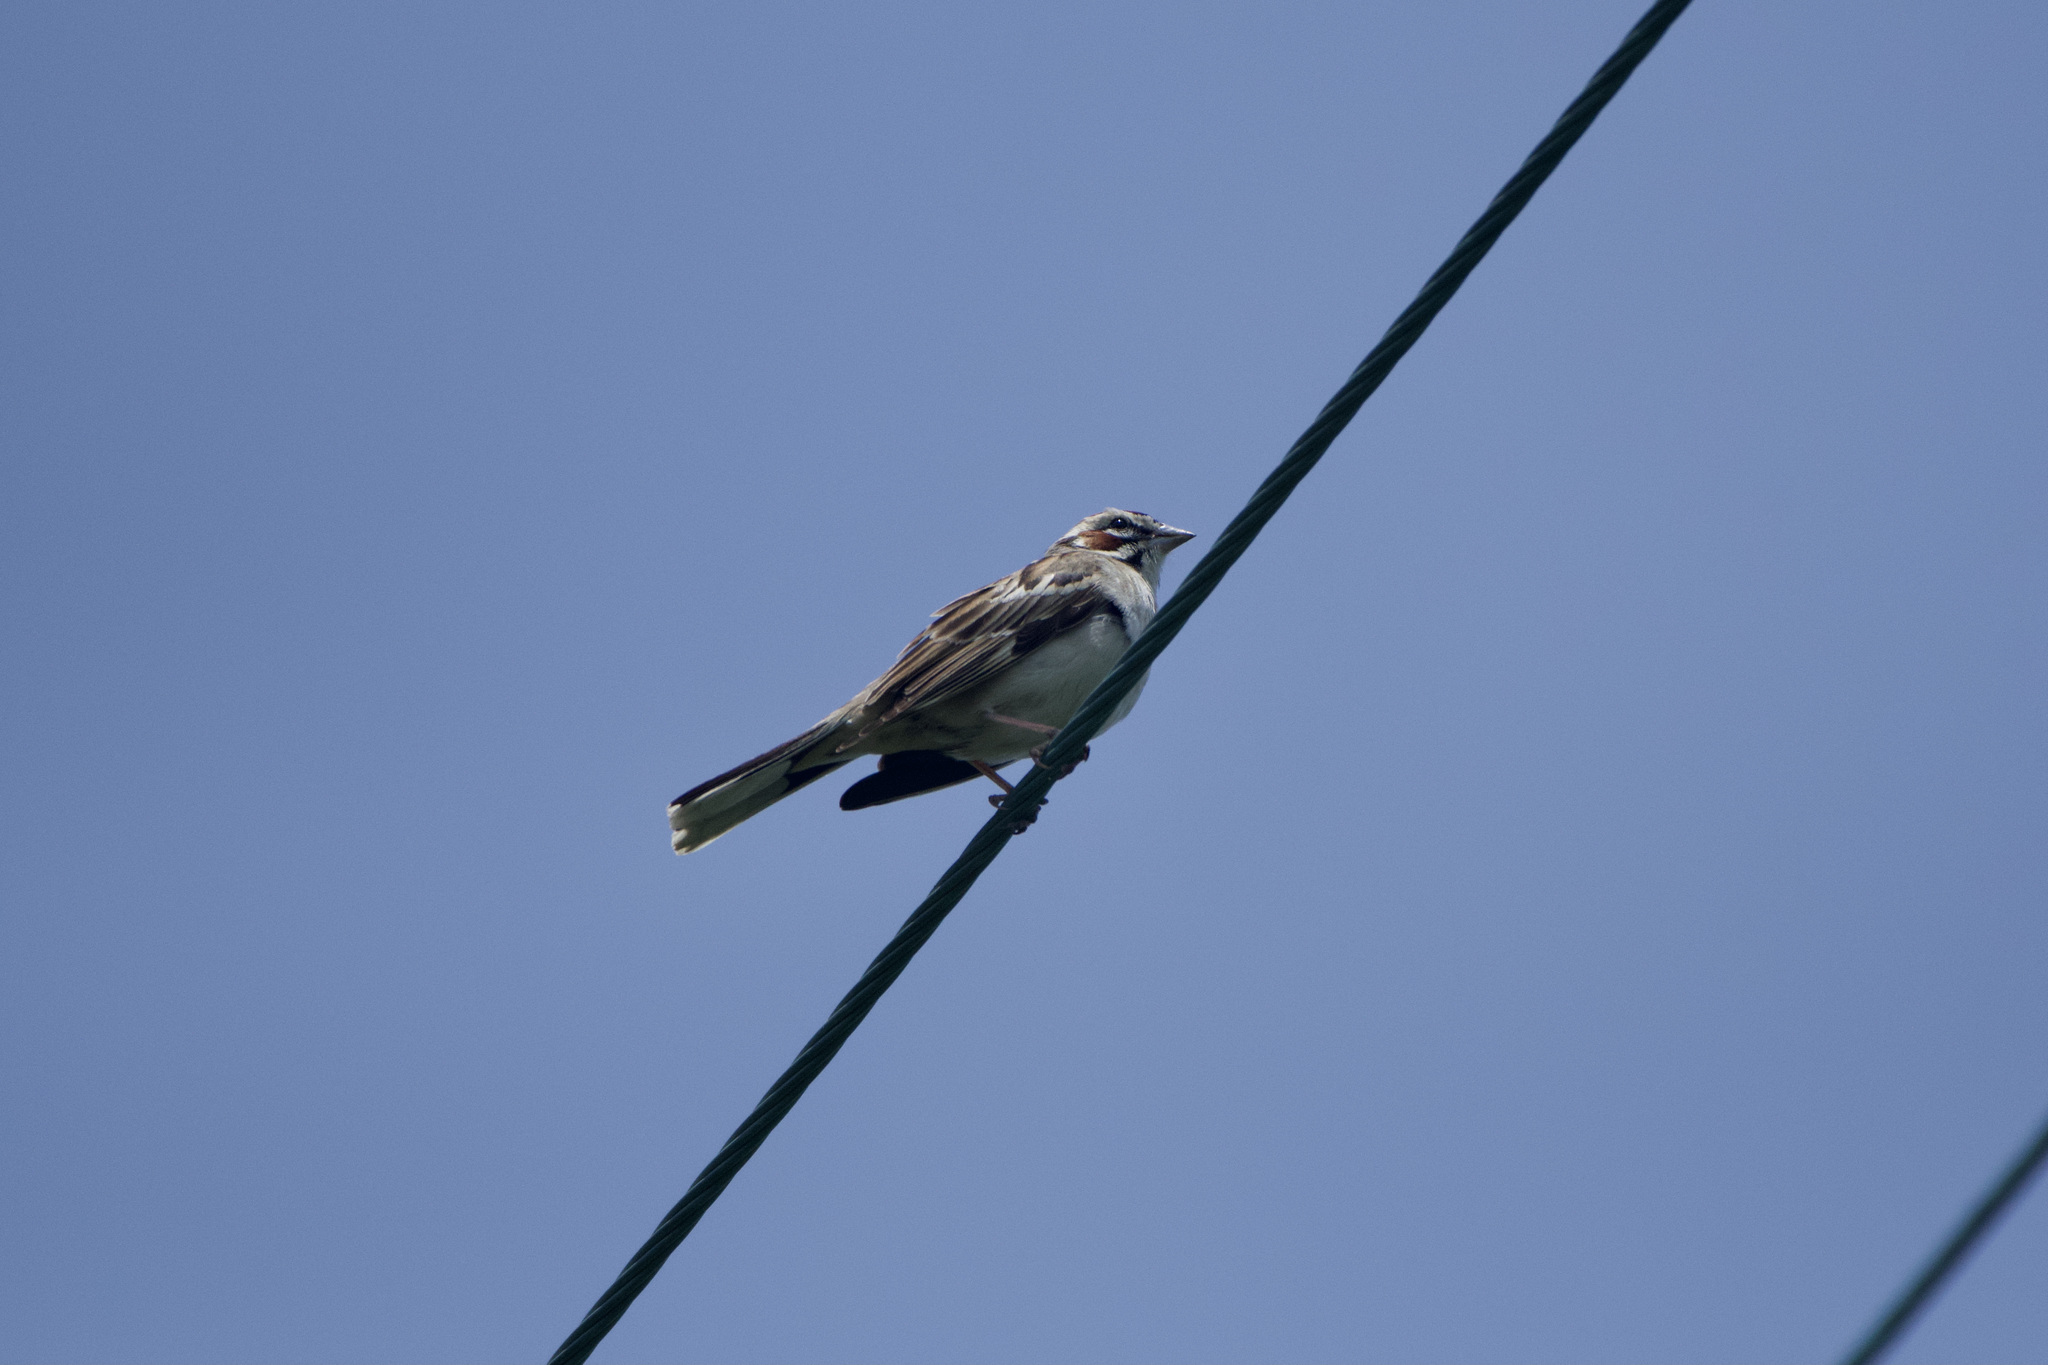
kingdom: Animalia
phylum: Chordata
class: Aves
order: Passeriformes
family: Passerellidae
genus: Chondestes
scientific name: Chondestes grammacus
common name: Lark sparrow
